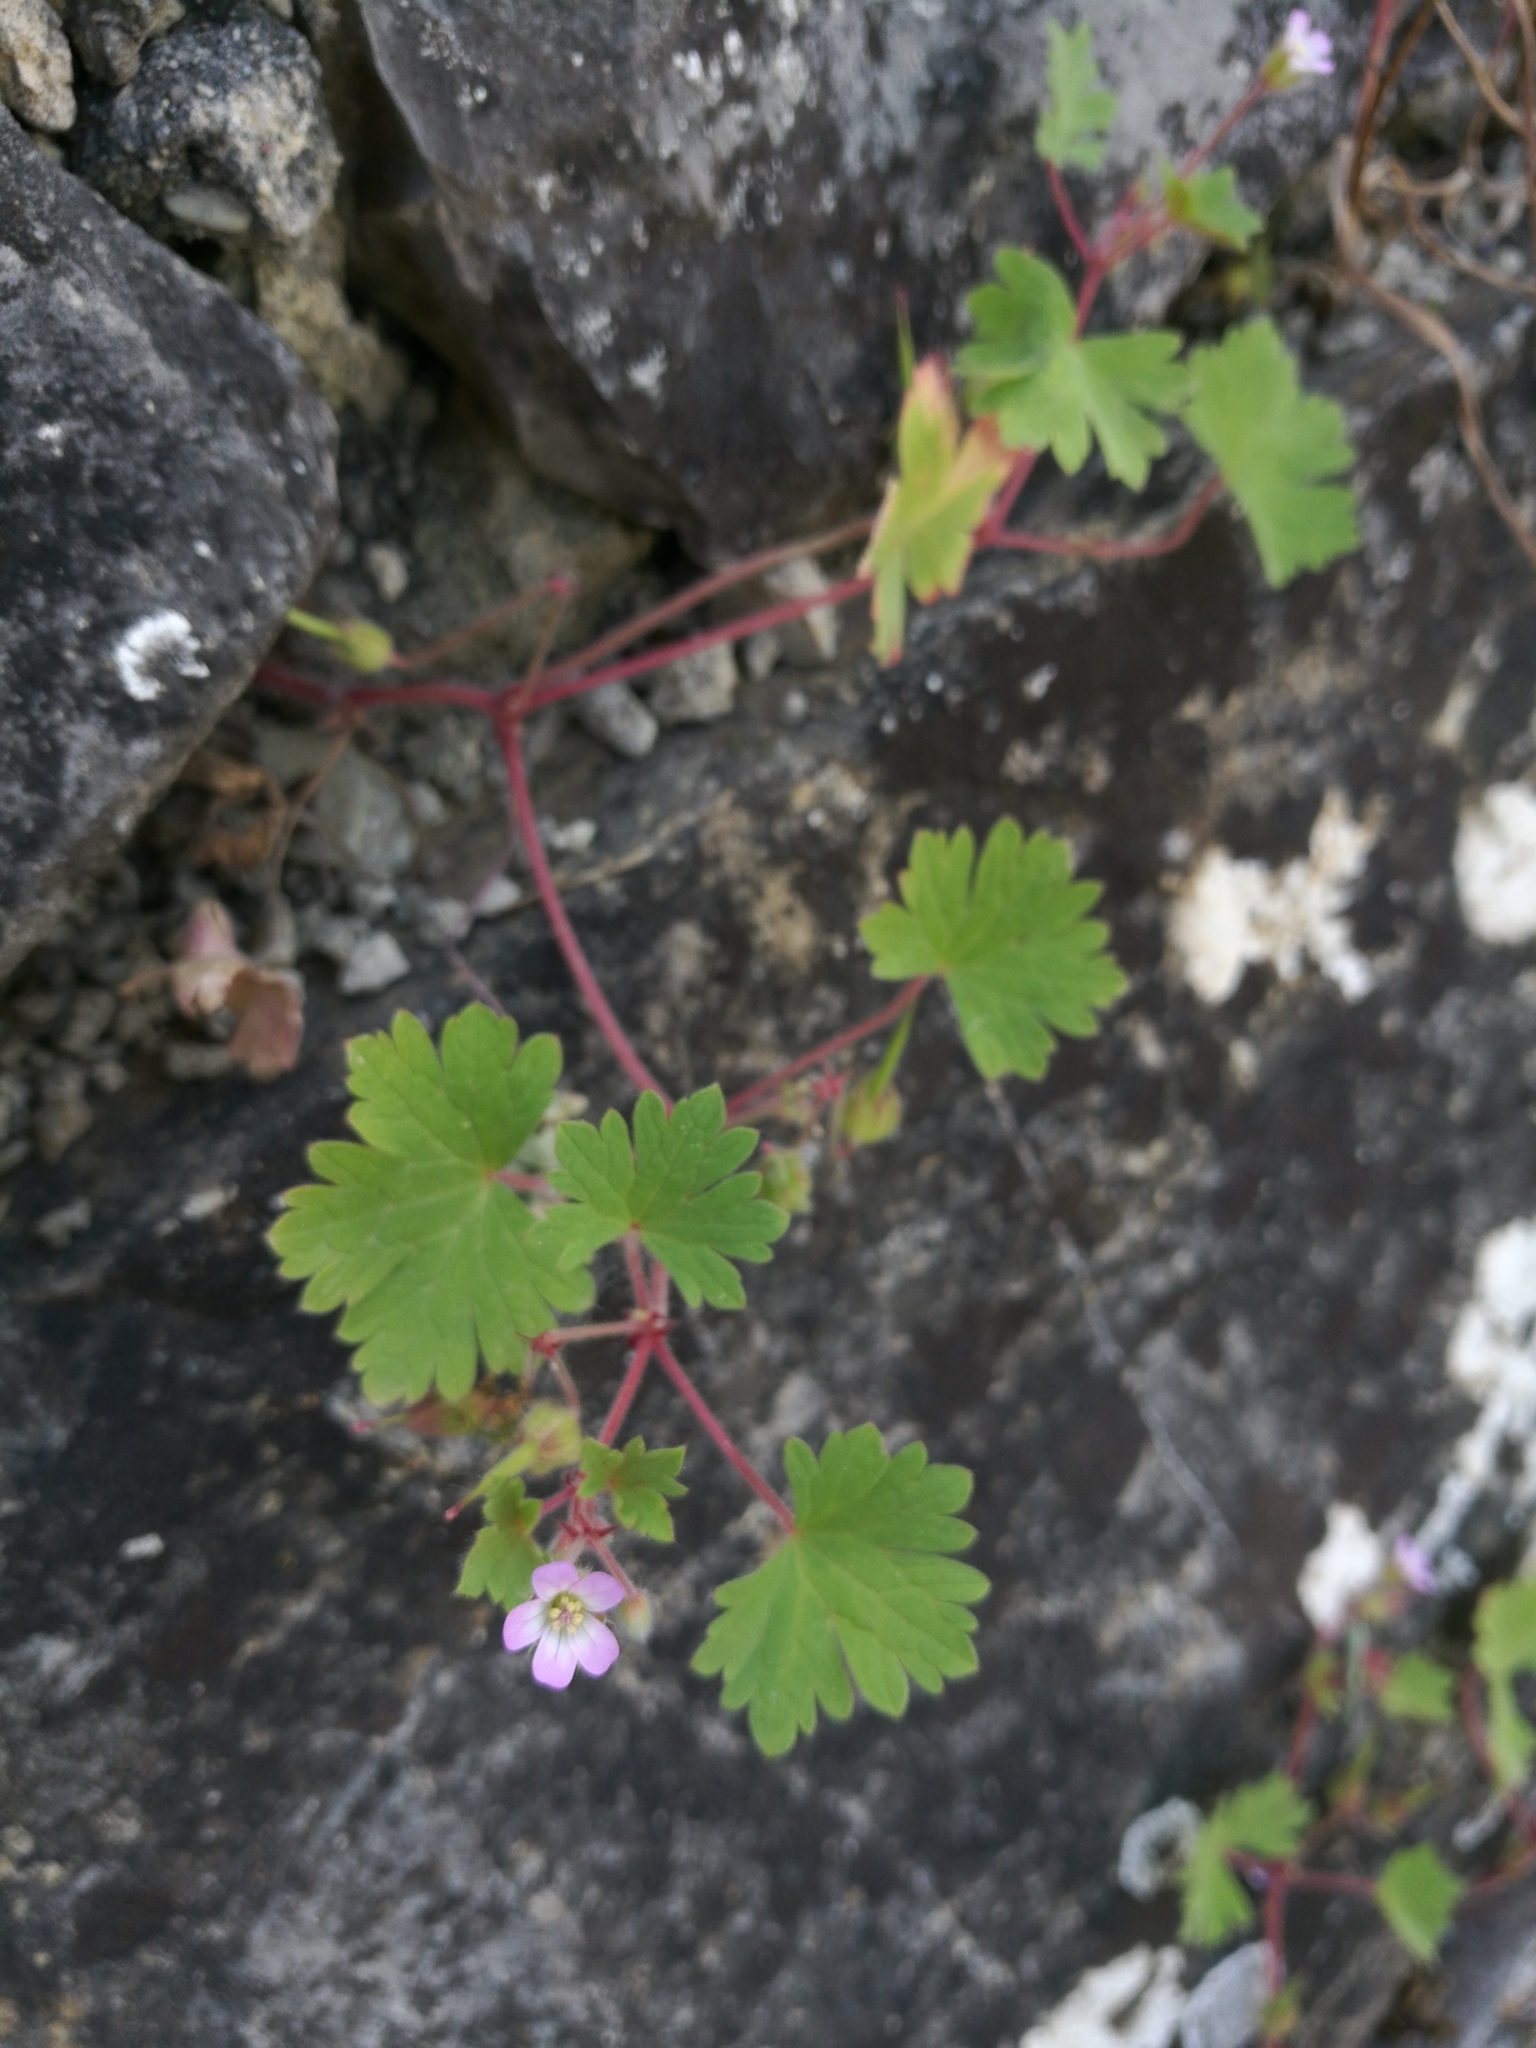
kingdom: Plantae
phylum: Tracheophyta
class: Magnoliopsida
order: Geraniales
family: Geraniaceae
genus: Geranium
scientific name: Geranium rotundifolium
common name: Round-leaved crane's-bill
